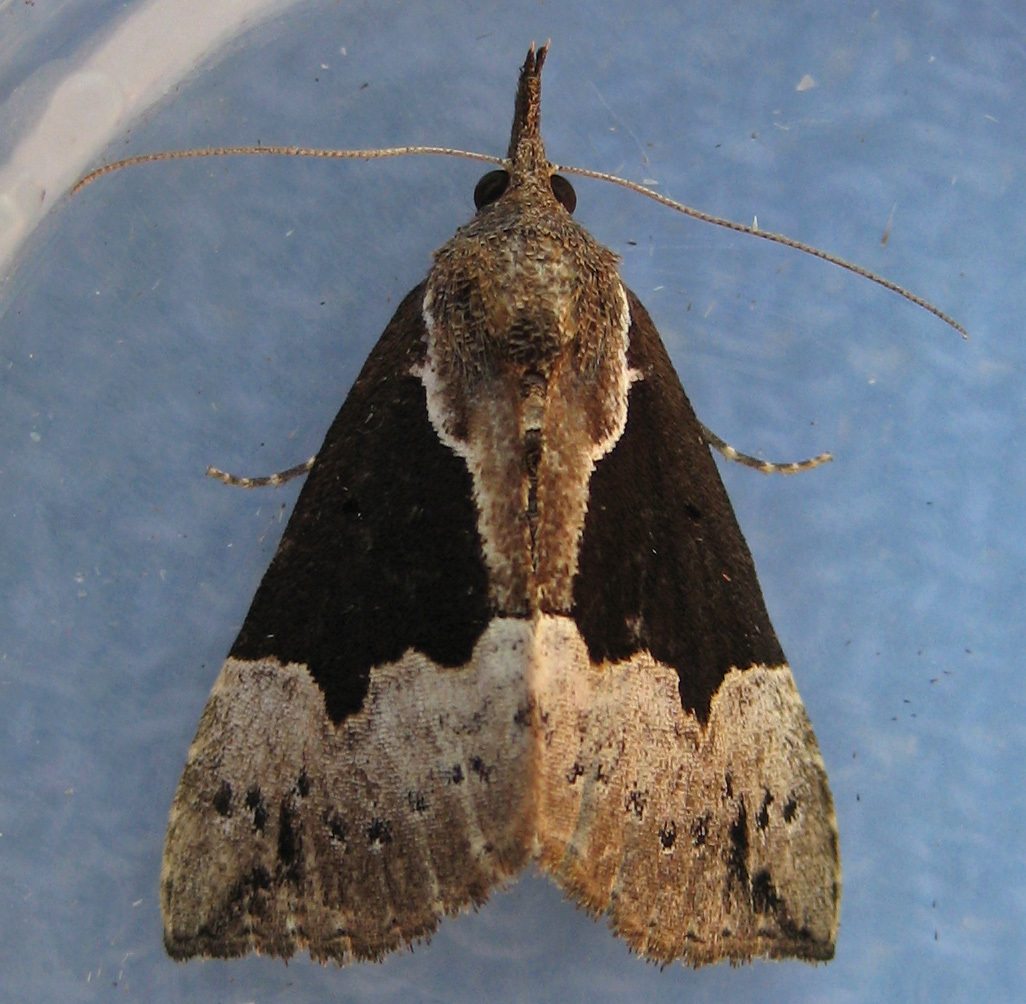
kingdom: Animalia
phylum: Arthropoda
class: Insecta
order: Lepidoptera
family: Erebidae
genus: Hypena
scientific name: Hypena bijugalis
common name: Dimorphic bomolocha moth
